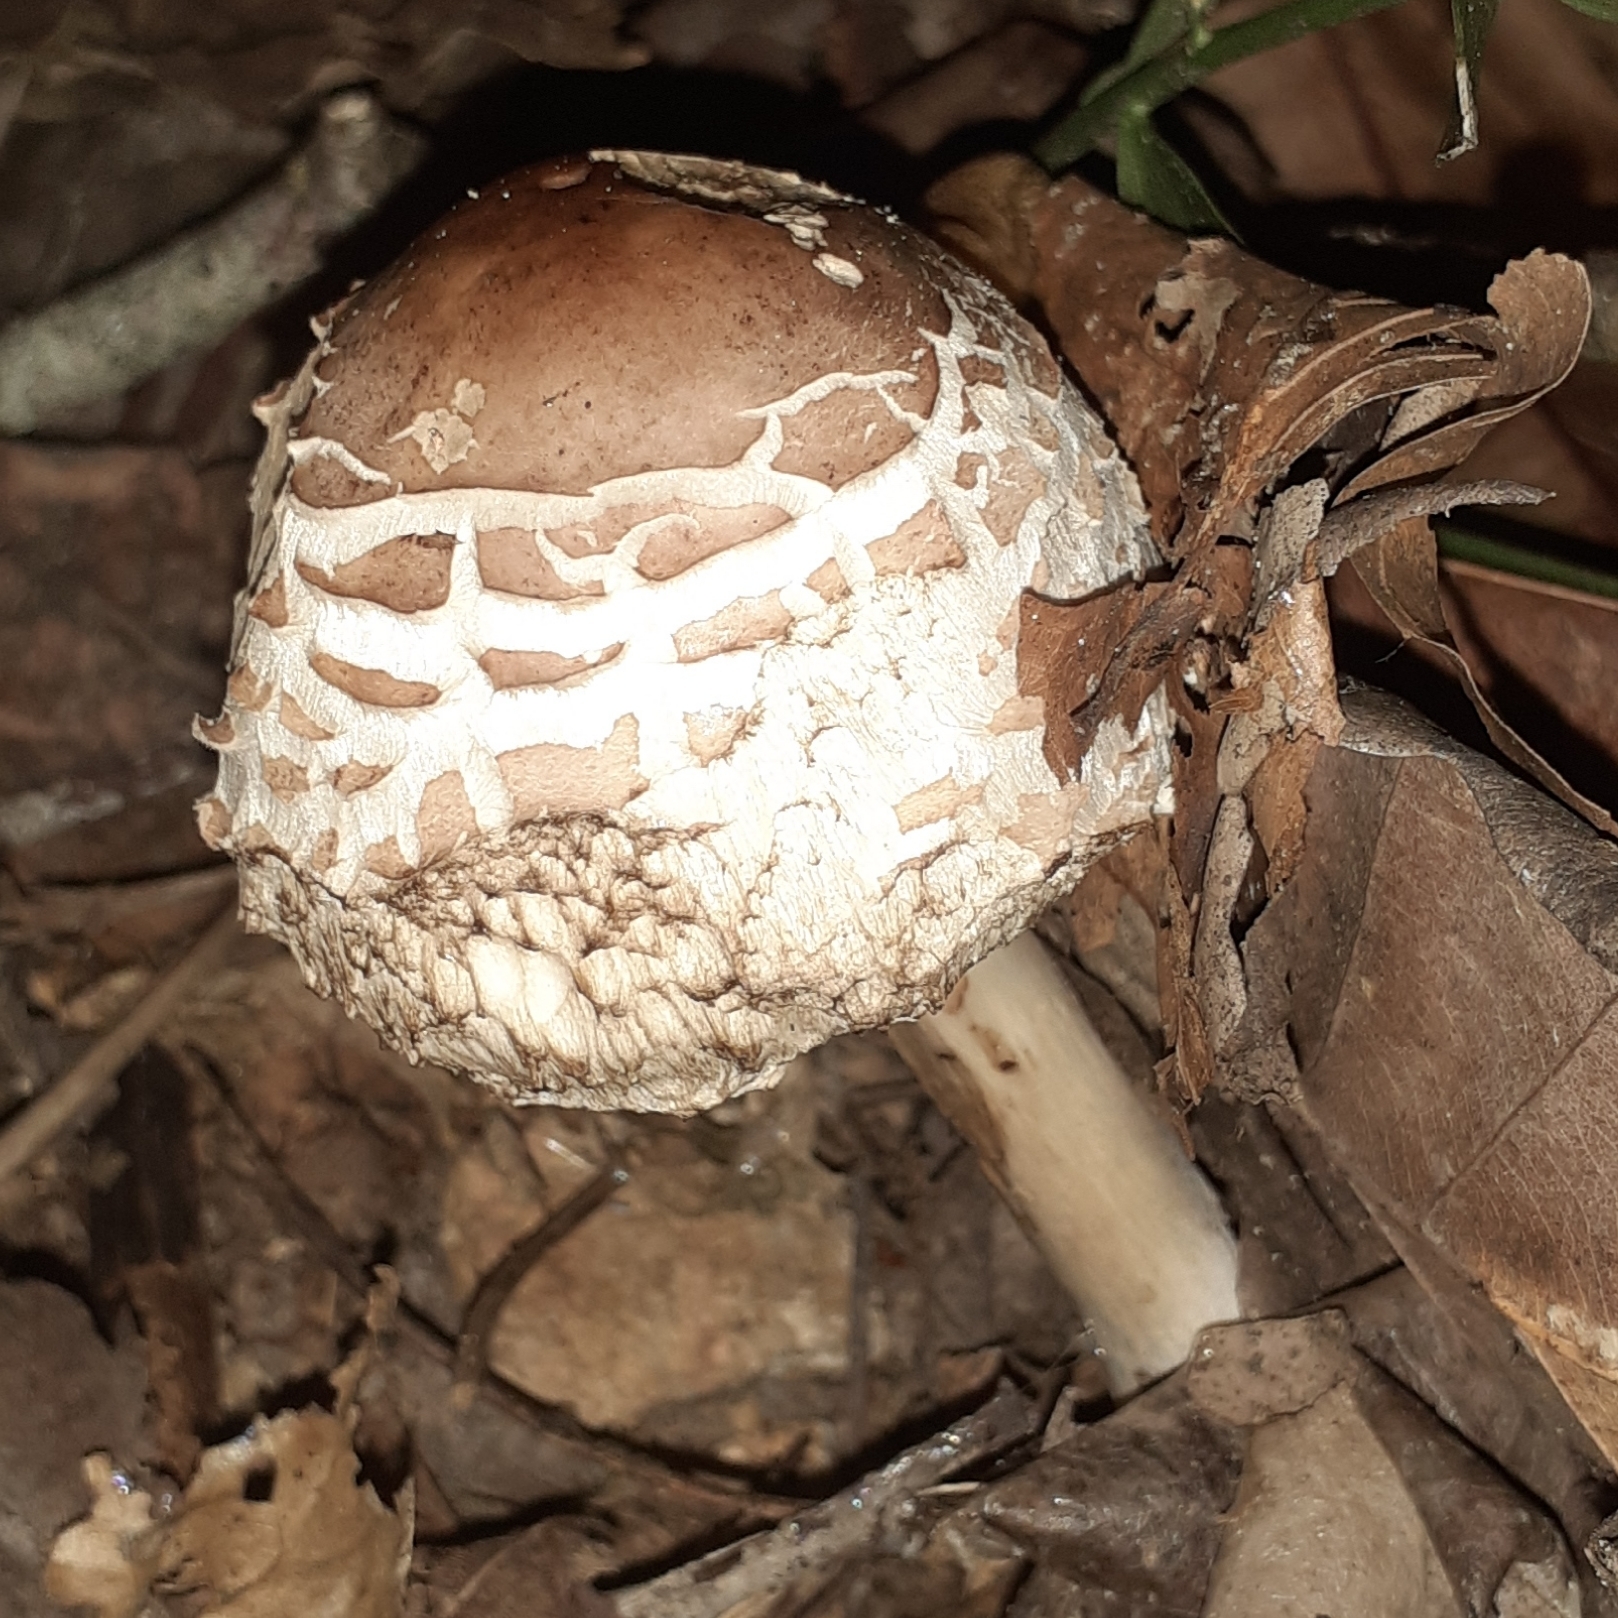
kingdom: Fungi
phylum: Basidiomycota
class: Agaricomycetes
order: Agaricales
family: Agaricaceae
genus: Macrolepiota
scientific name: Macrolepiota procera
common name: Parasol
